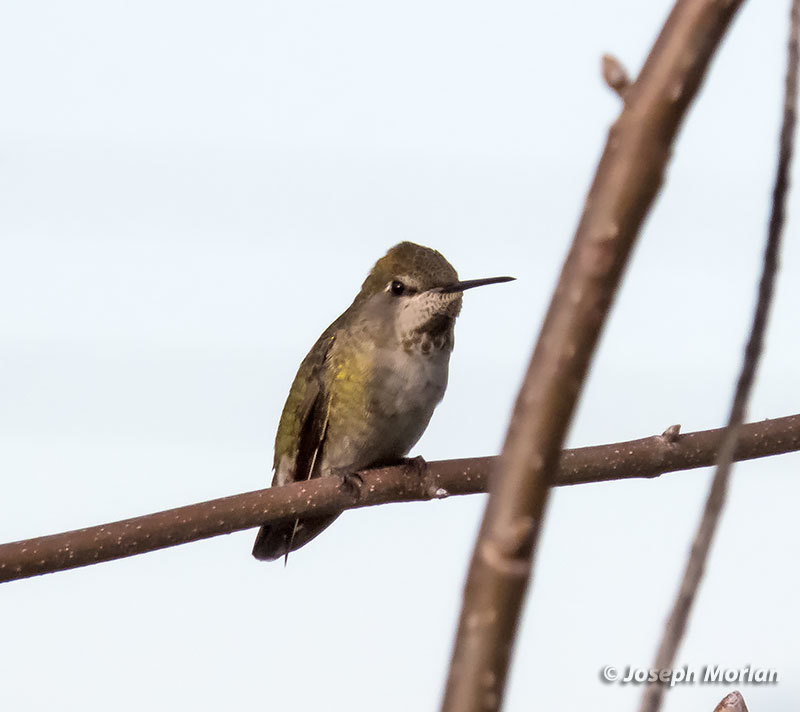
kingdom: Animalia
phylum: Chordata
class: Aves
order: Apodiformes
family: Trochilidae
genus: Calypte
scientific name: Calypte anna
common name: Anna's hummingbird
